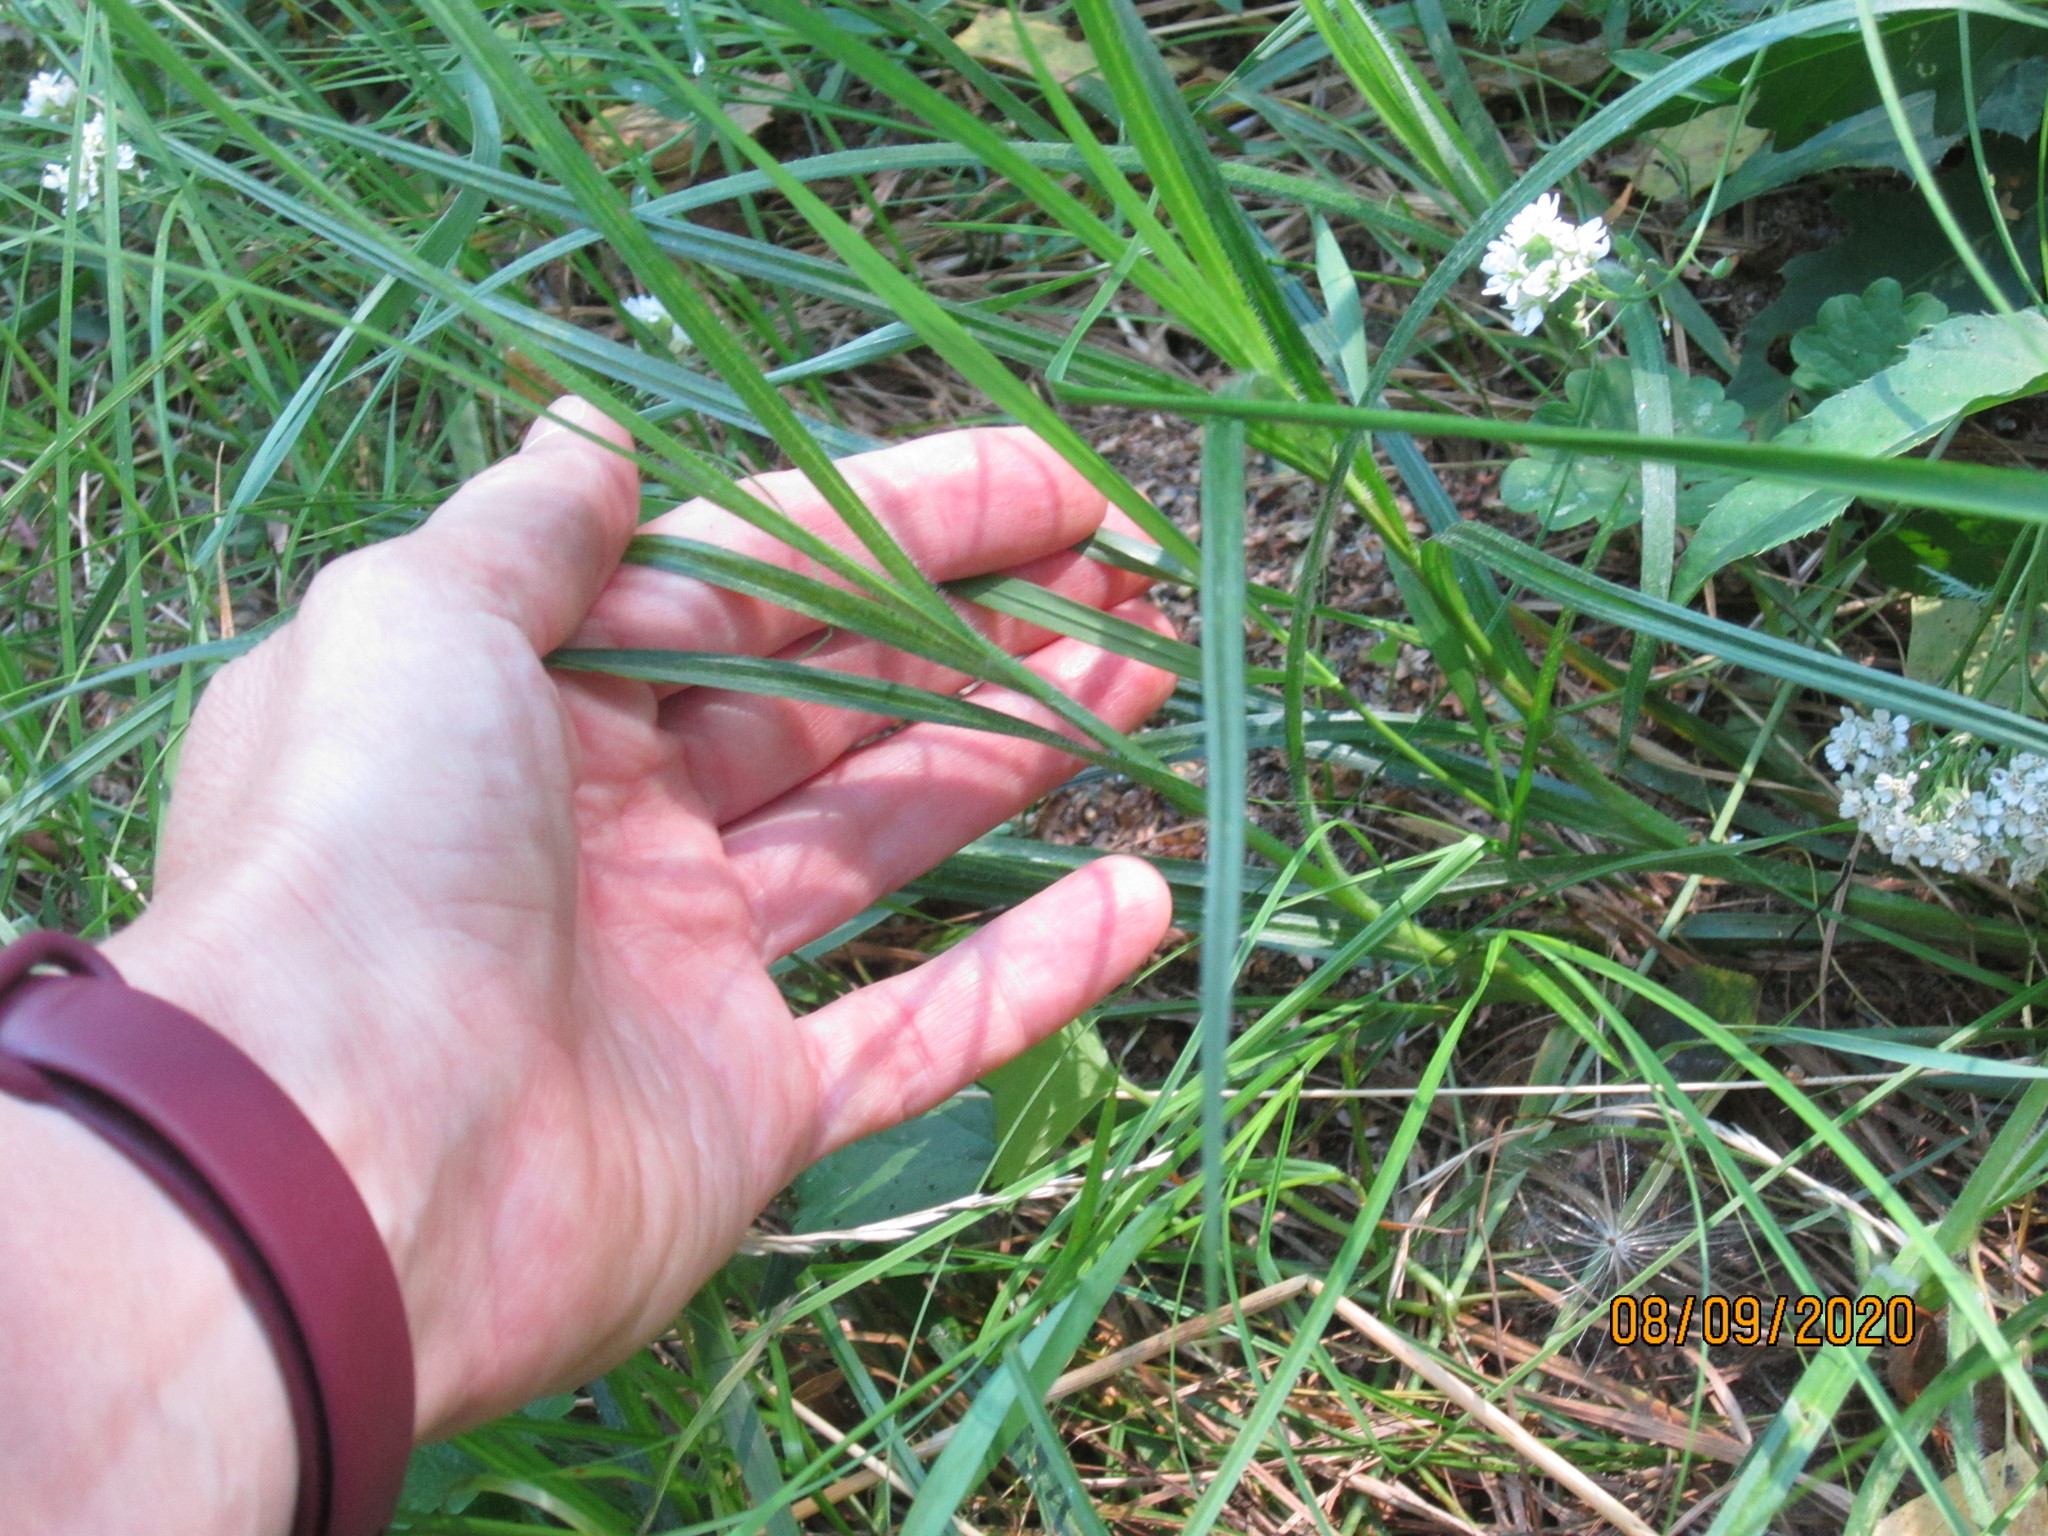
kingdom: Plantae
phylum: Tracheophyta
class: Liliopsida
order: Poales
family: Cyperaceae
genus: Carex
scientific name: Carex hirta
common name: Hairy sedge
